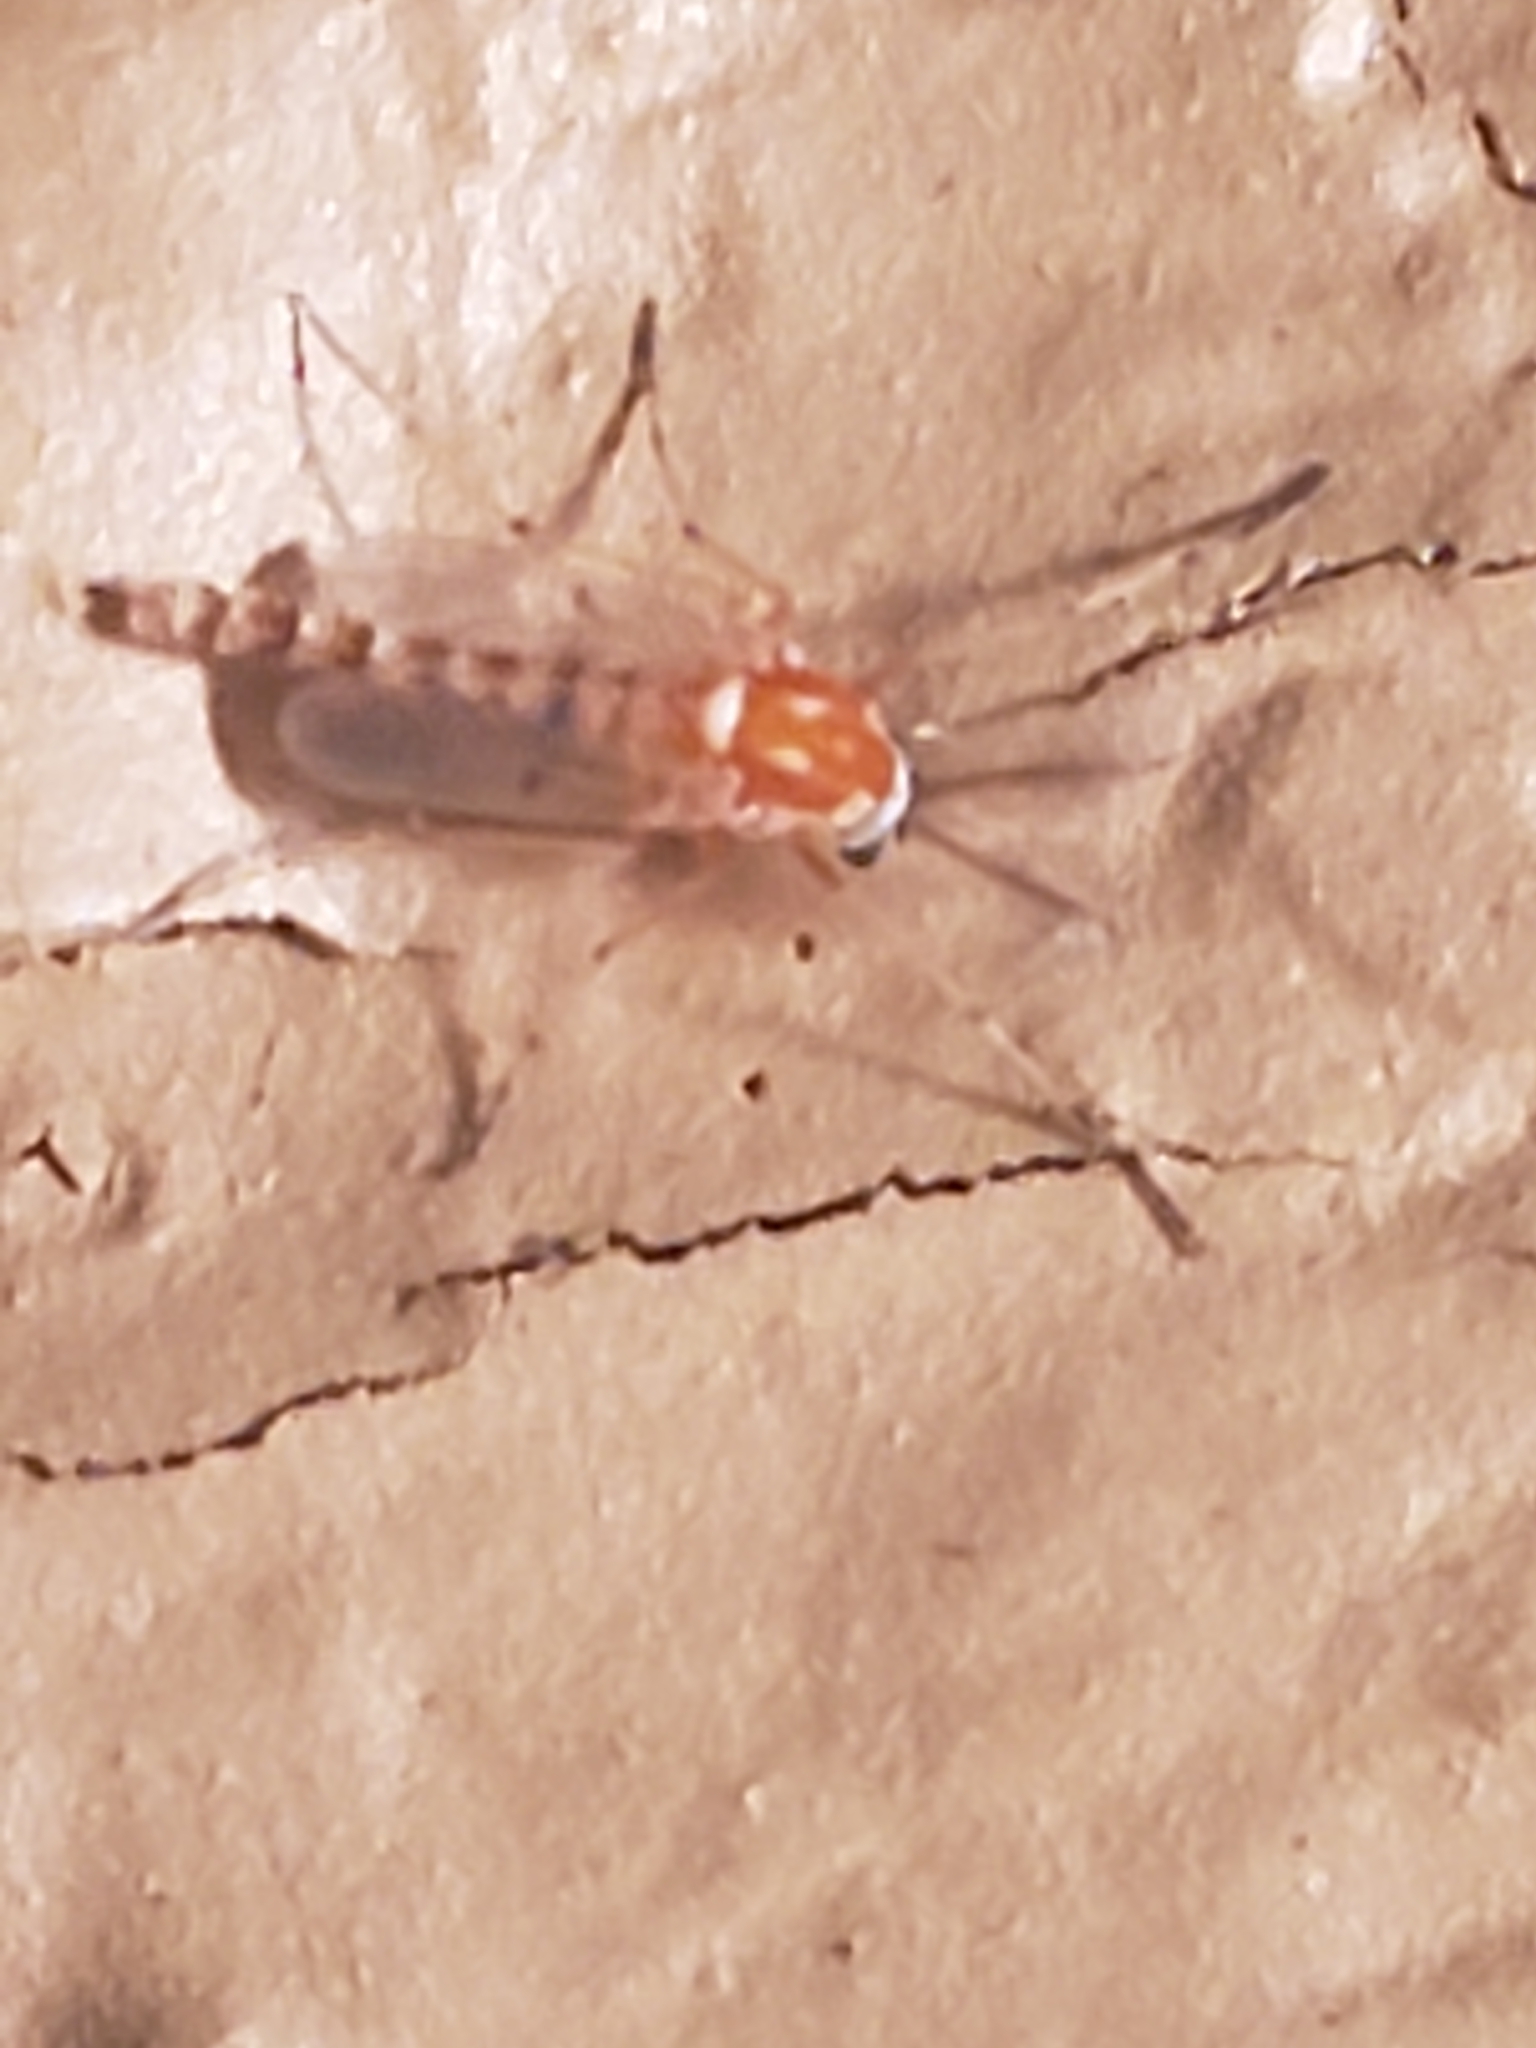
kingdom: Animalia
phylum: Arthropoda
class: Insecta
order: Diptera
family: Chironomidae
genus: Procladius
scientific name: Procladius bellus
